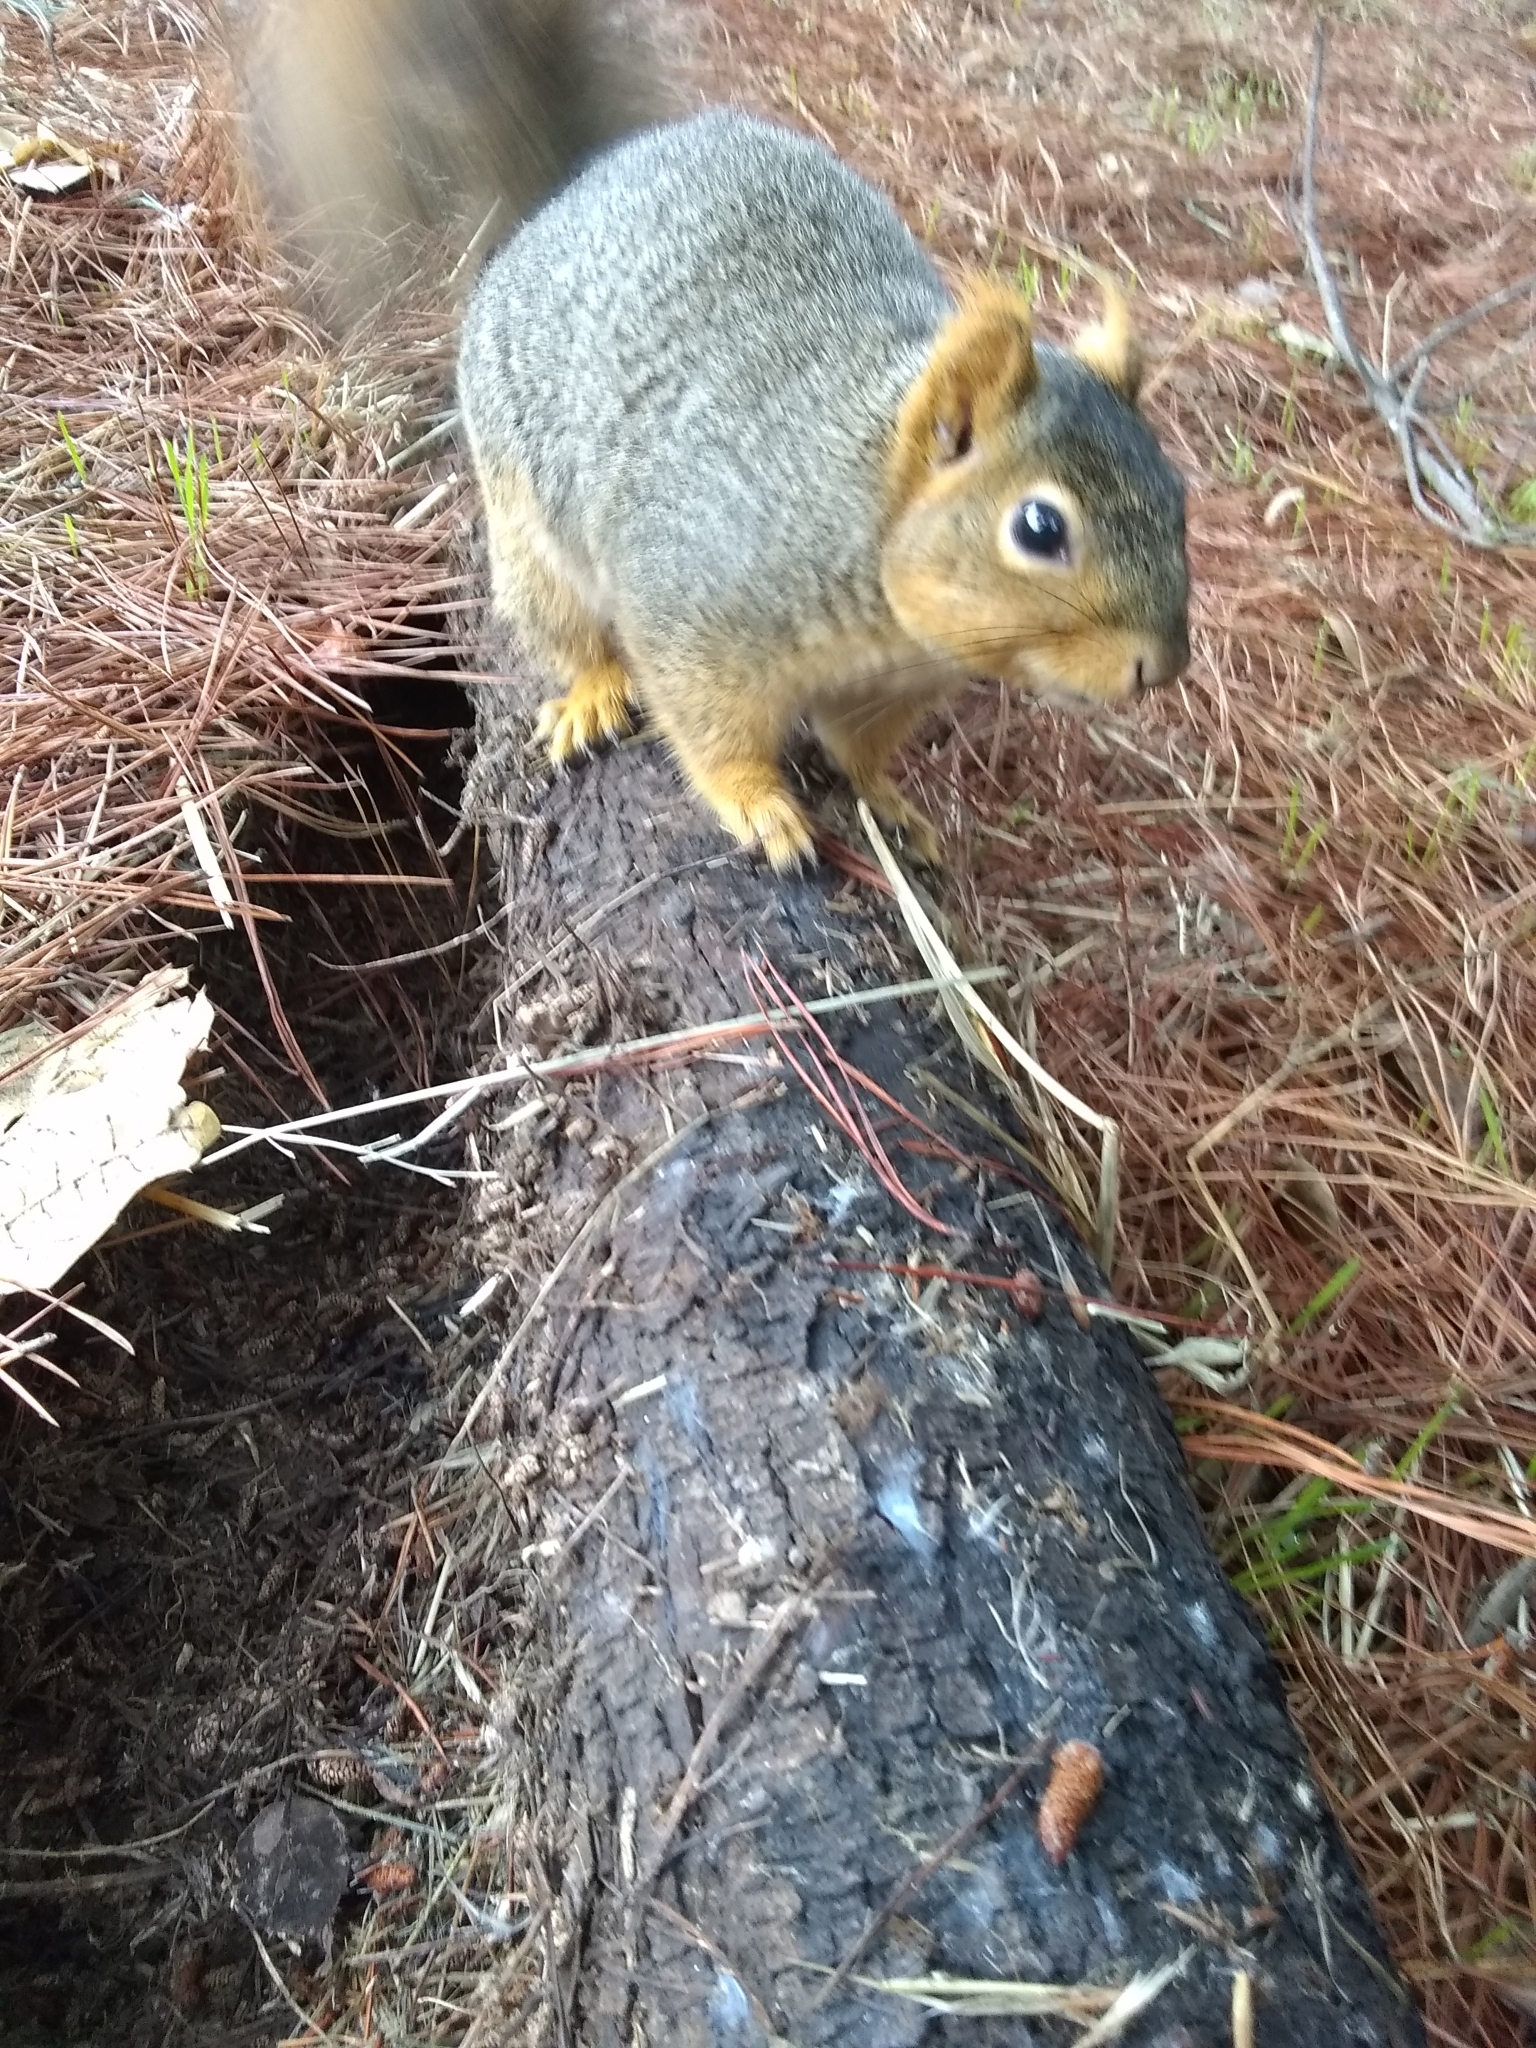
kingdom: Animalia
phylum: Chordata
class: Mammalia
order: Rodentia
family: Sciuridae
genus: Sciurus
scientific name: Sciurus niger
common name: Fox squirrel
